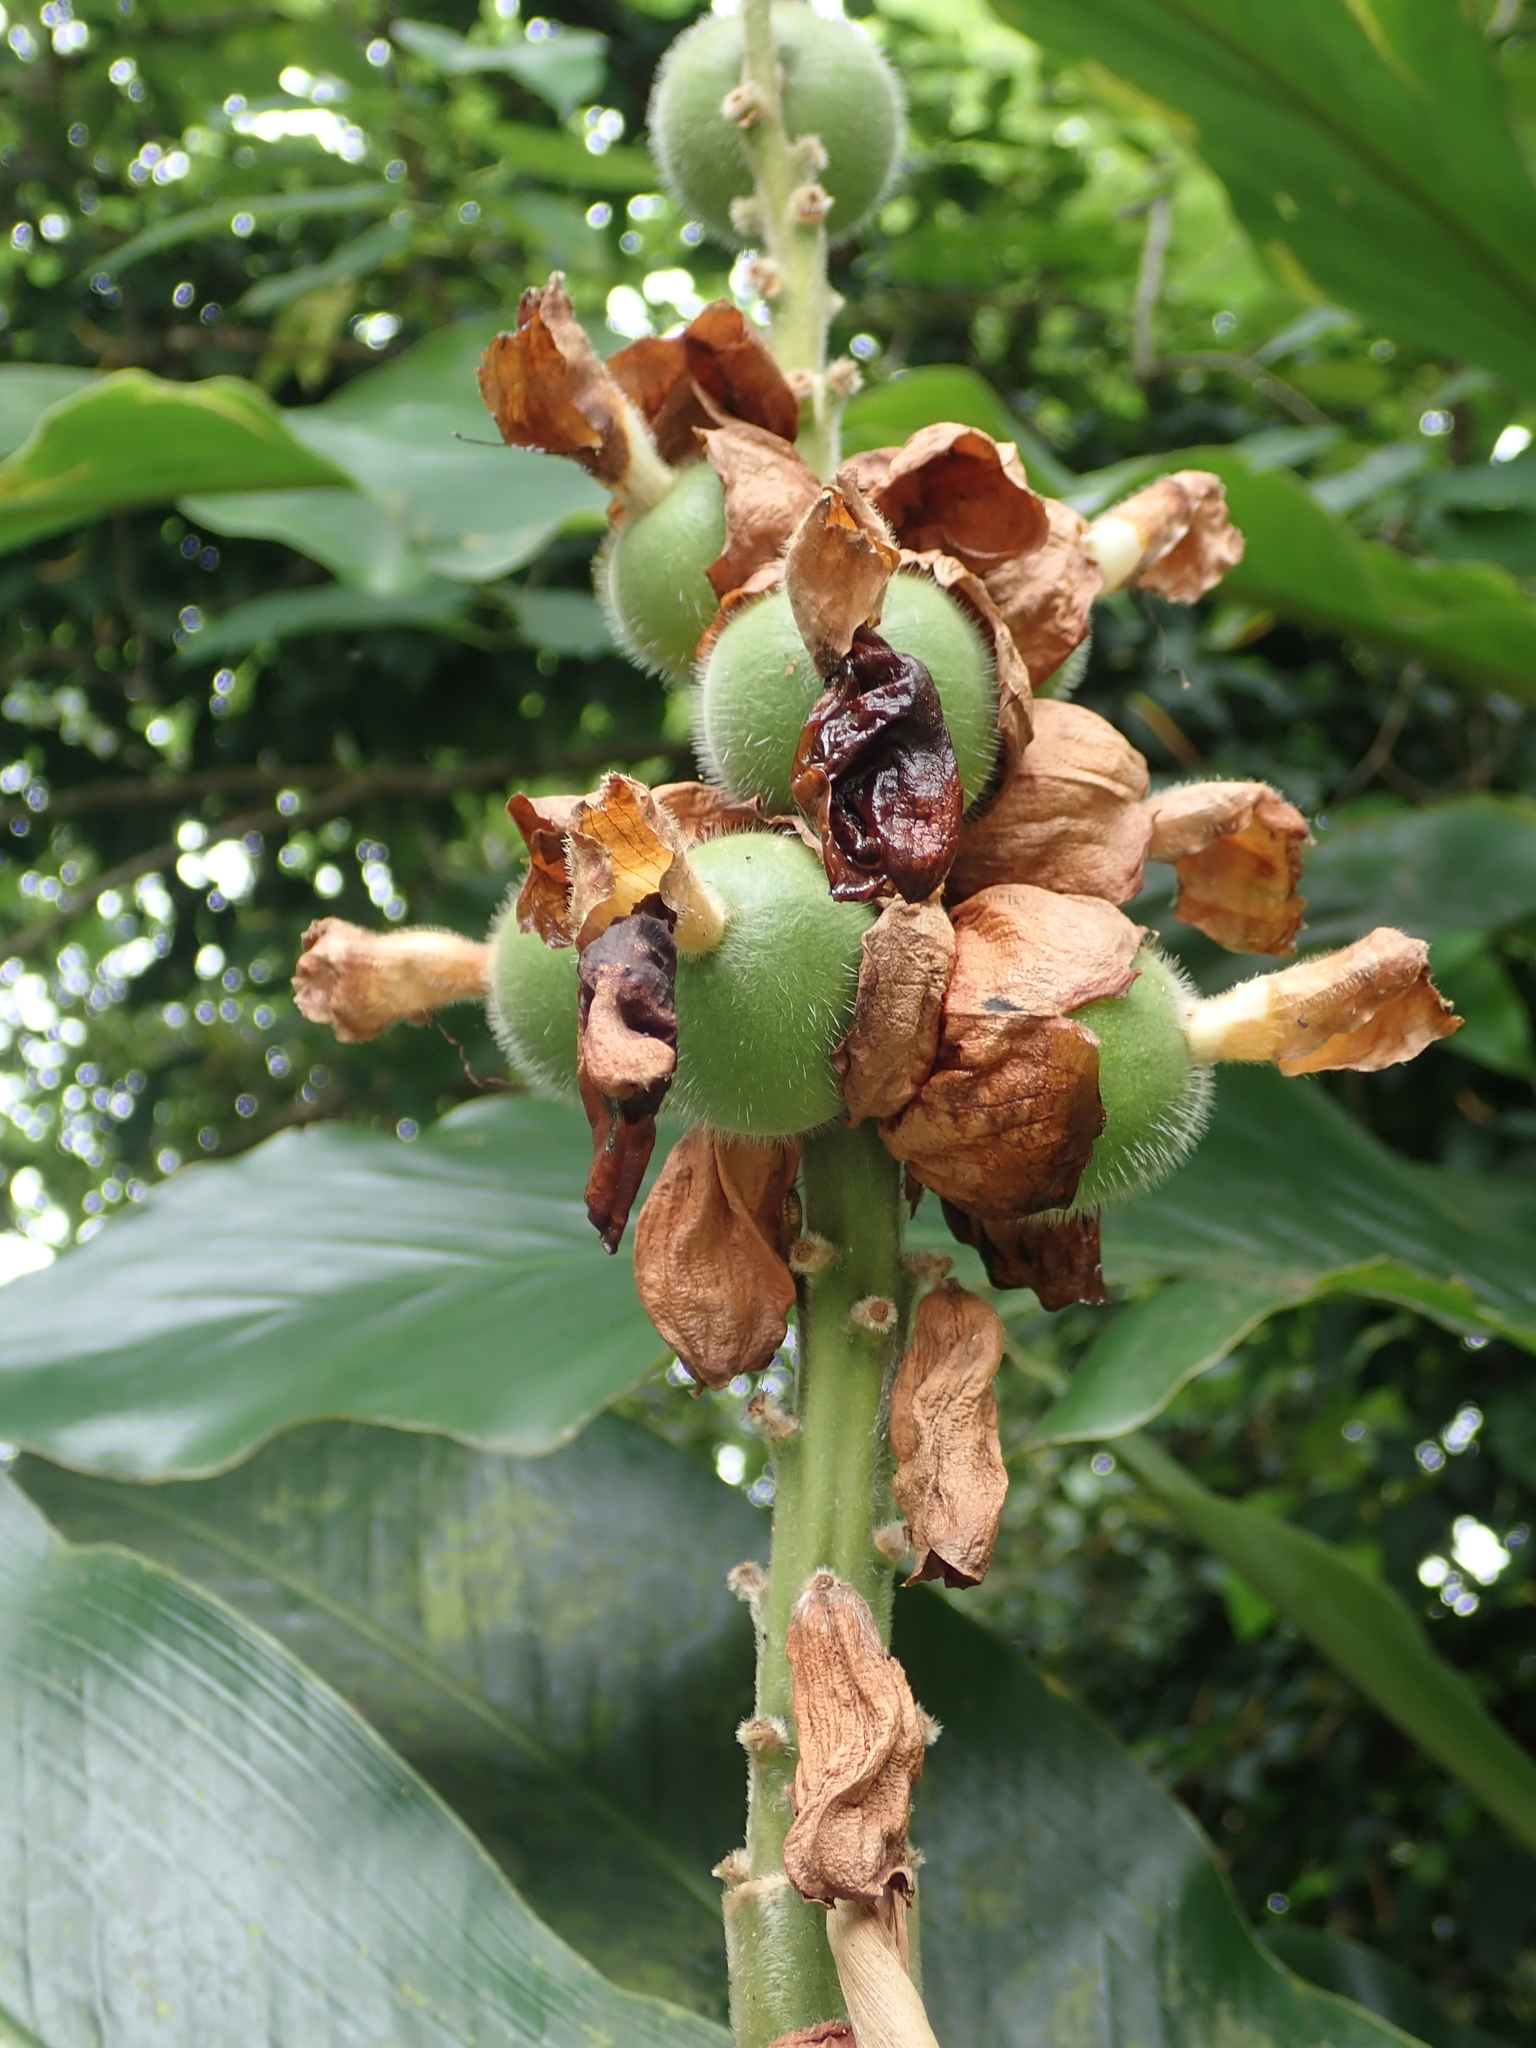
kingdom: Plantae
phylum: Tracheophyta
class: Liliopsida
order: Zingiberales
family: Zingiberaceae
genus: Alpinia
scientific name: Alpinia uraiensis
